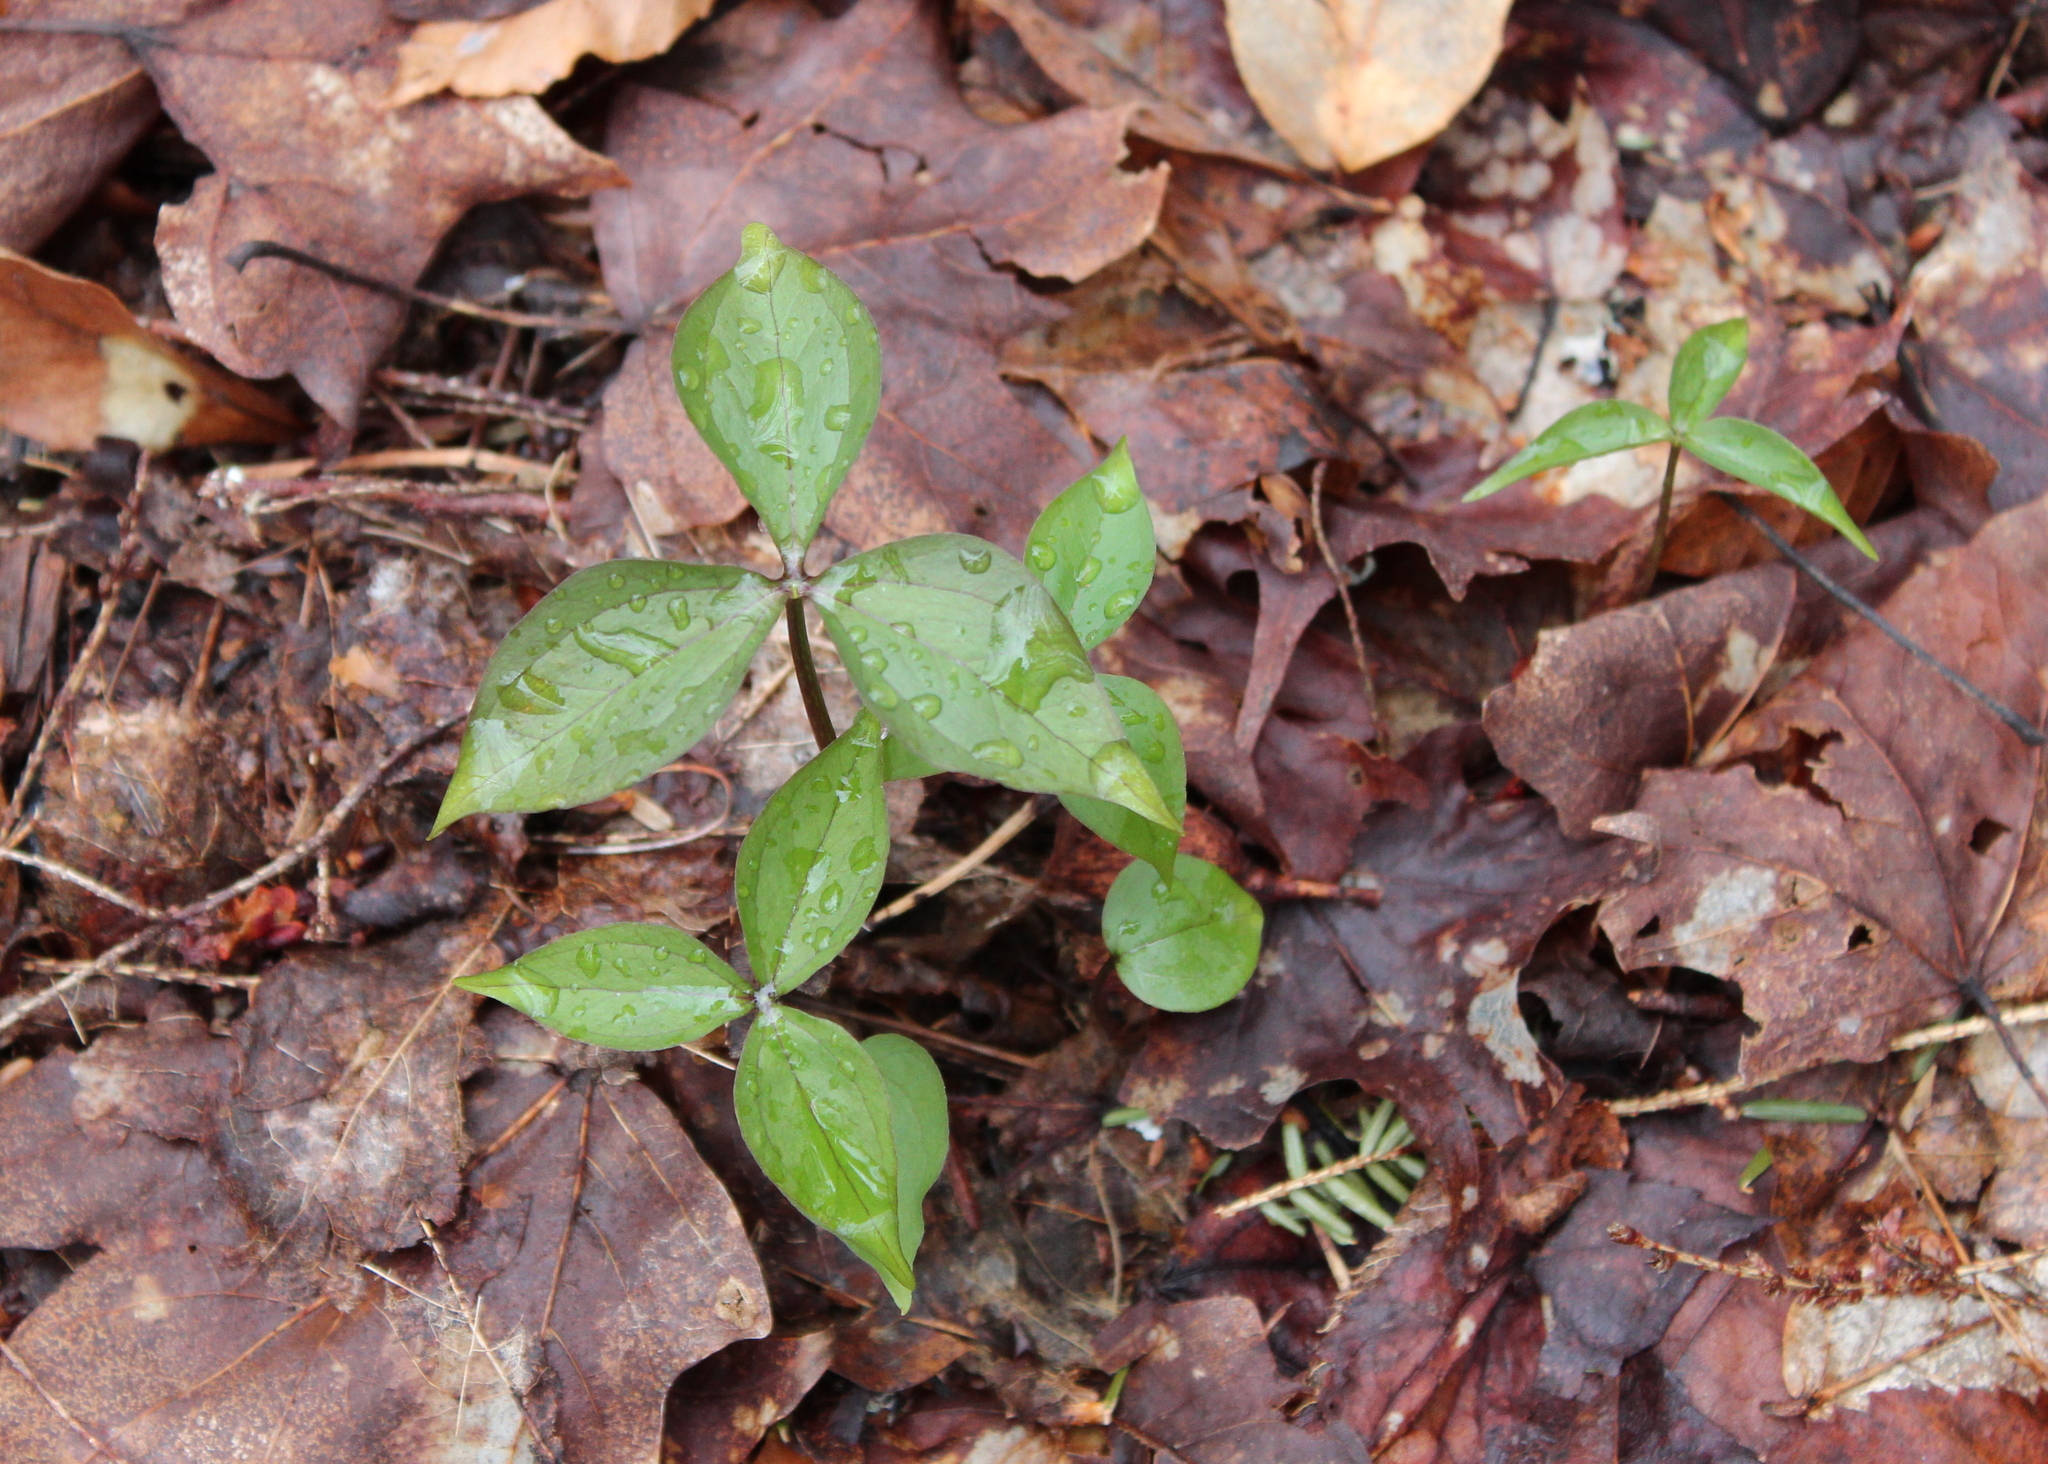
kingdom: Plantae
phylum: Tracheophyta
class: Liliopsida
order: Liliales
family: Melanthiaceae
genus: Trillium
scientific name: Trillium undulatum
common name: Paint trillium
